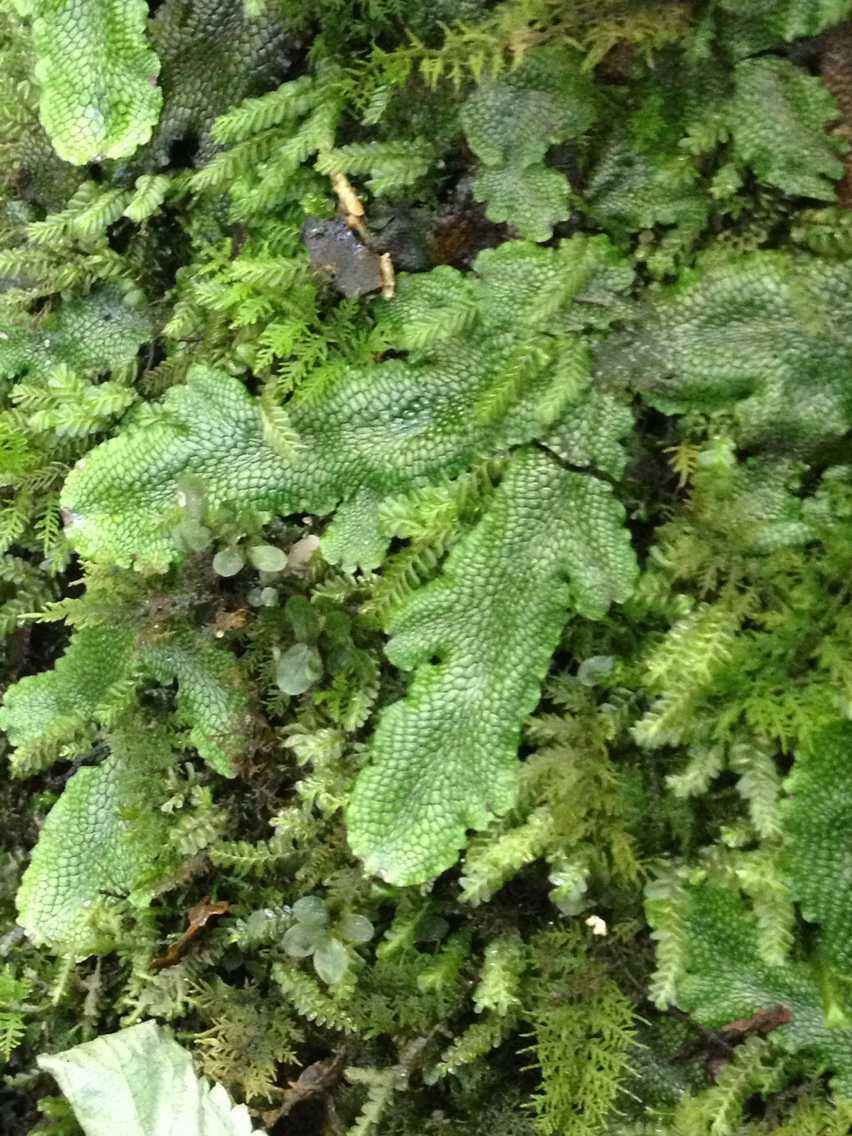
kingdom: Plantae
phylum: Marchantiophyta
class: Marchantiopsida
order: Marchantiales
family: Conocephalaceae
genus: Conocephalum
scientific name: Conocephalum salebrosum
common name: Cat-tongue liverwort
